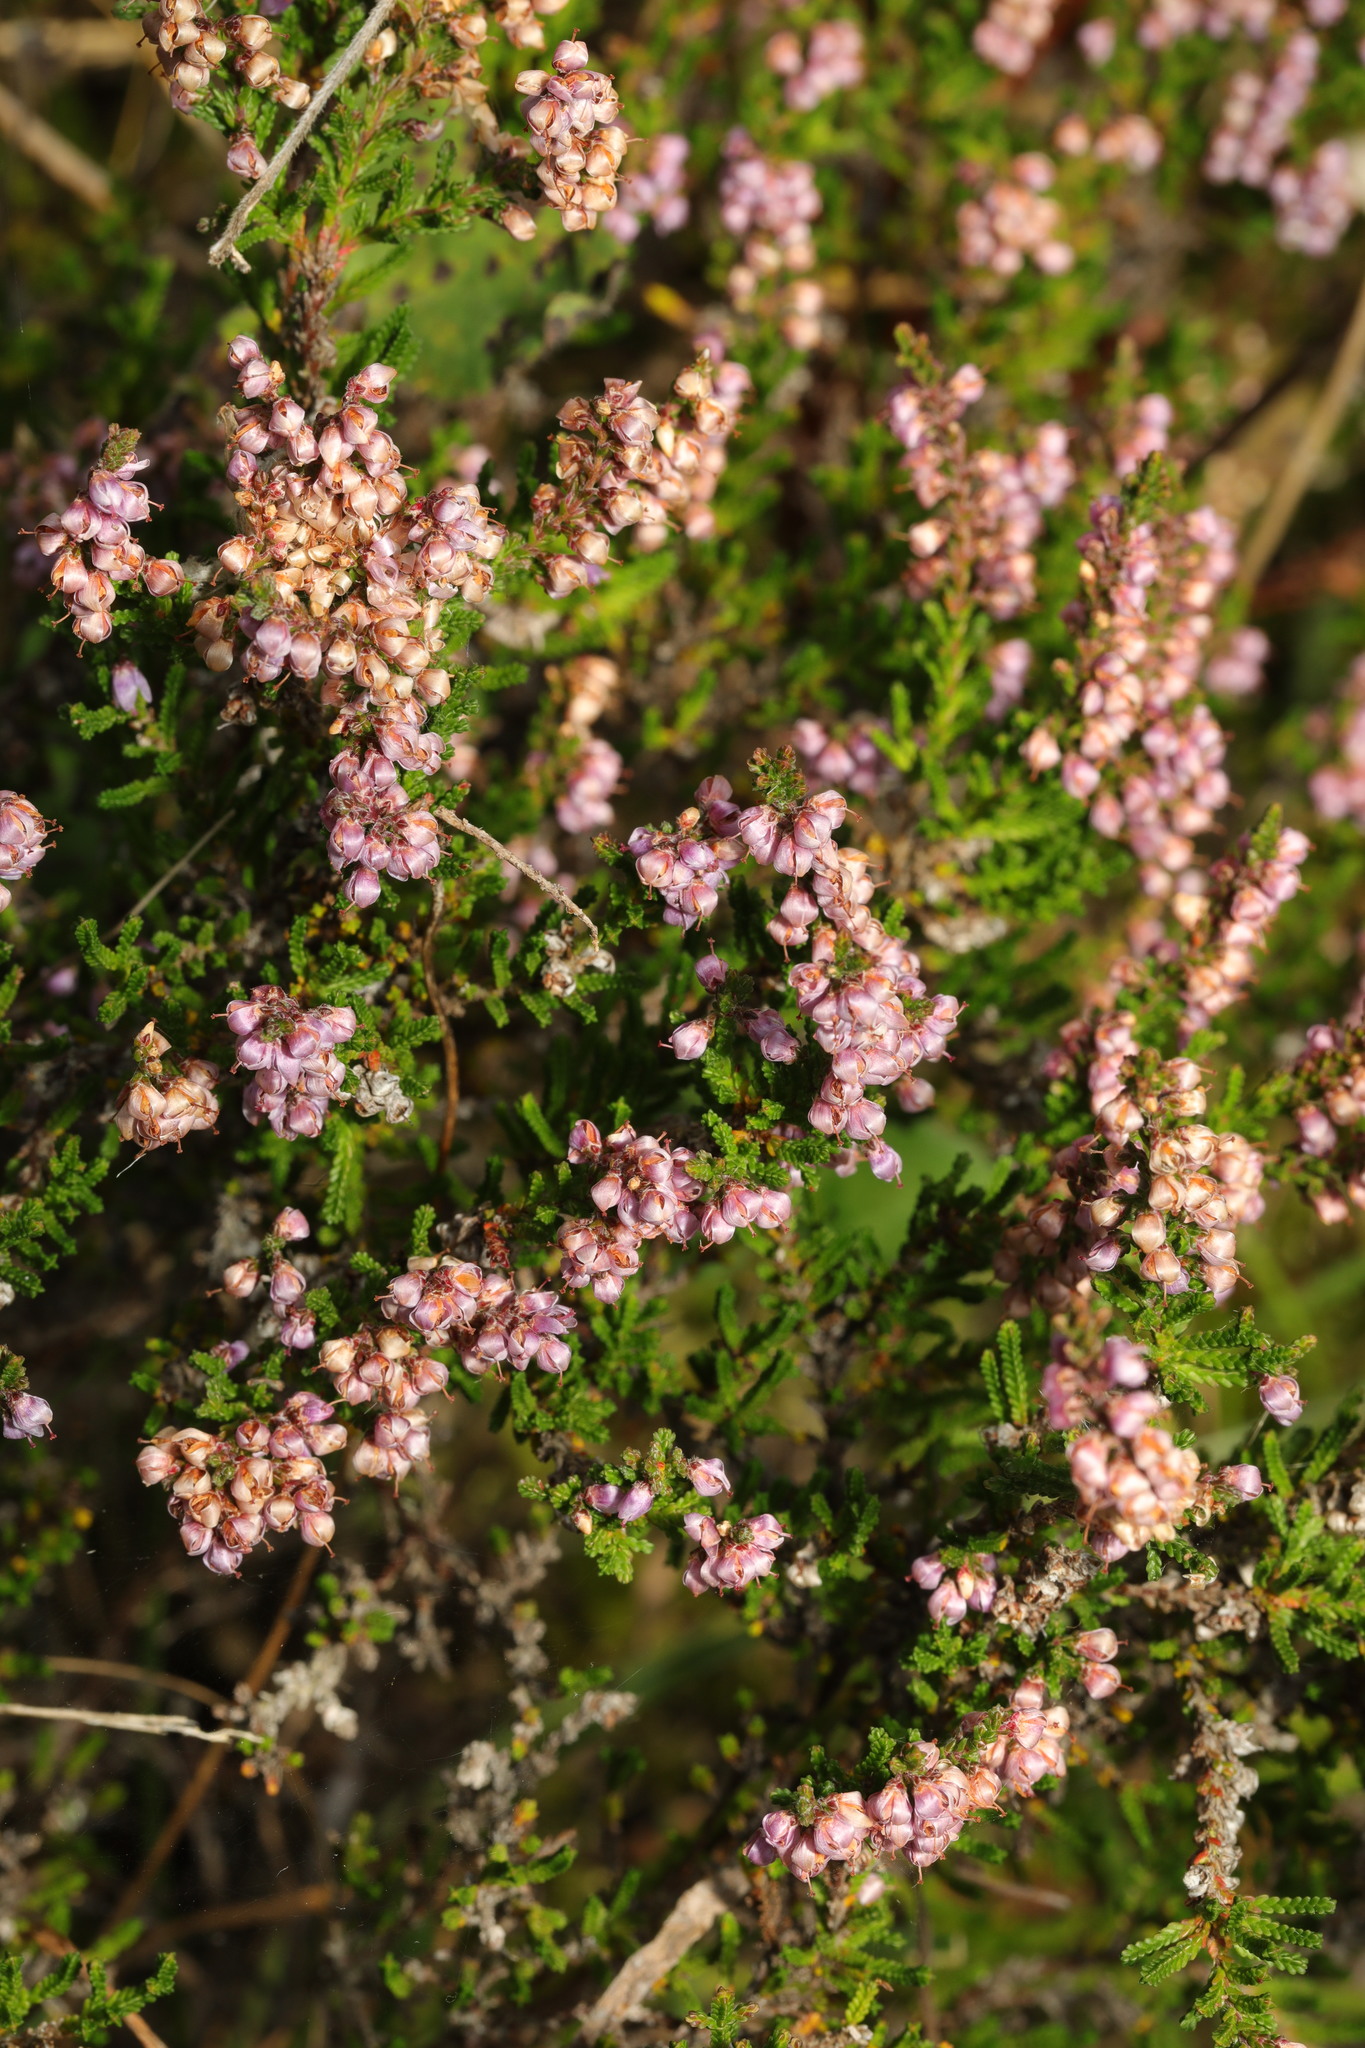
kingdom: Plantae
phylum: Tracheophyta
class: Magnoliopsida
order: Ericales
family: Ericaceae
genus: Calluna
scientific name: Calluna vulgaris
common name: Heather
